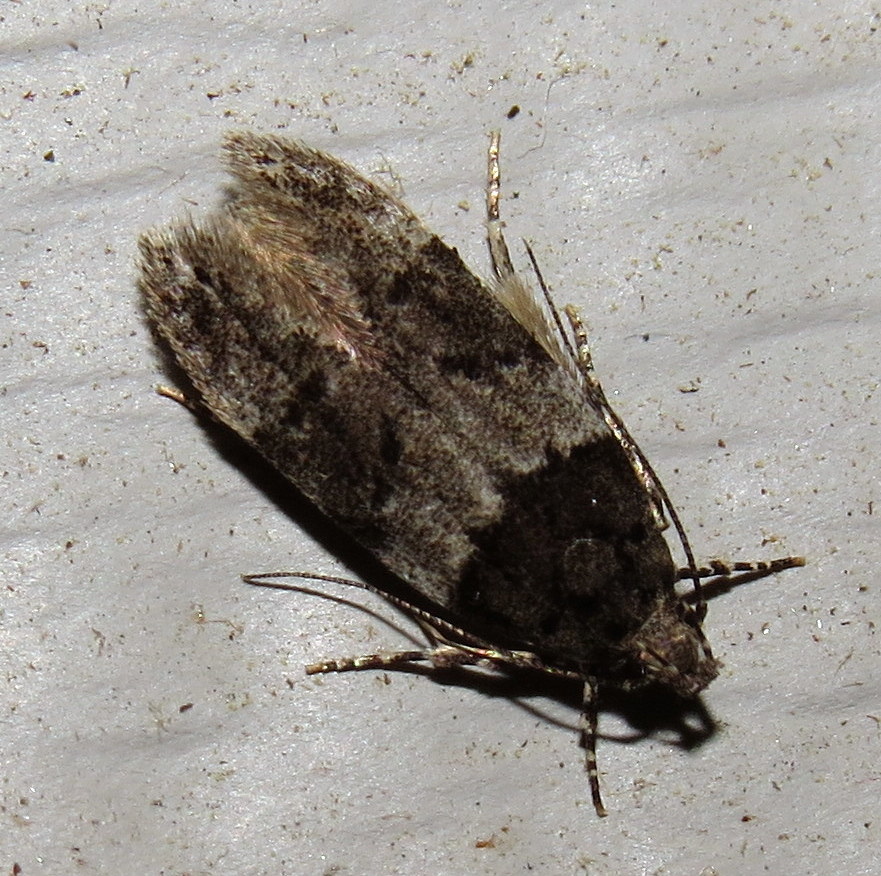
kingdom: Animalia
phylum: Arthropoda
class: Insecta
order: Lepidoptera
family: Gelechiidae
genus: Pubitelphusa
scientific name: Pubitelphusa latifasciella
